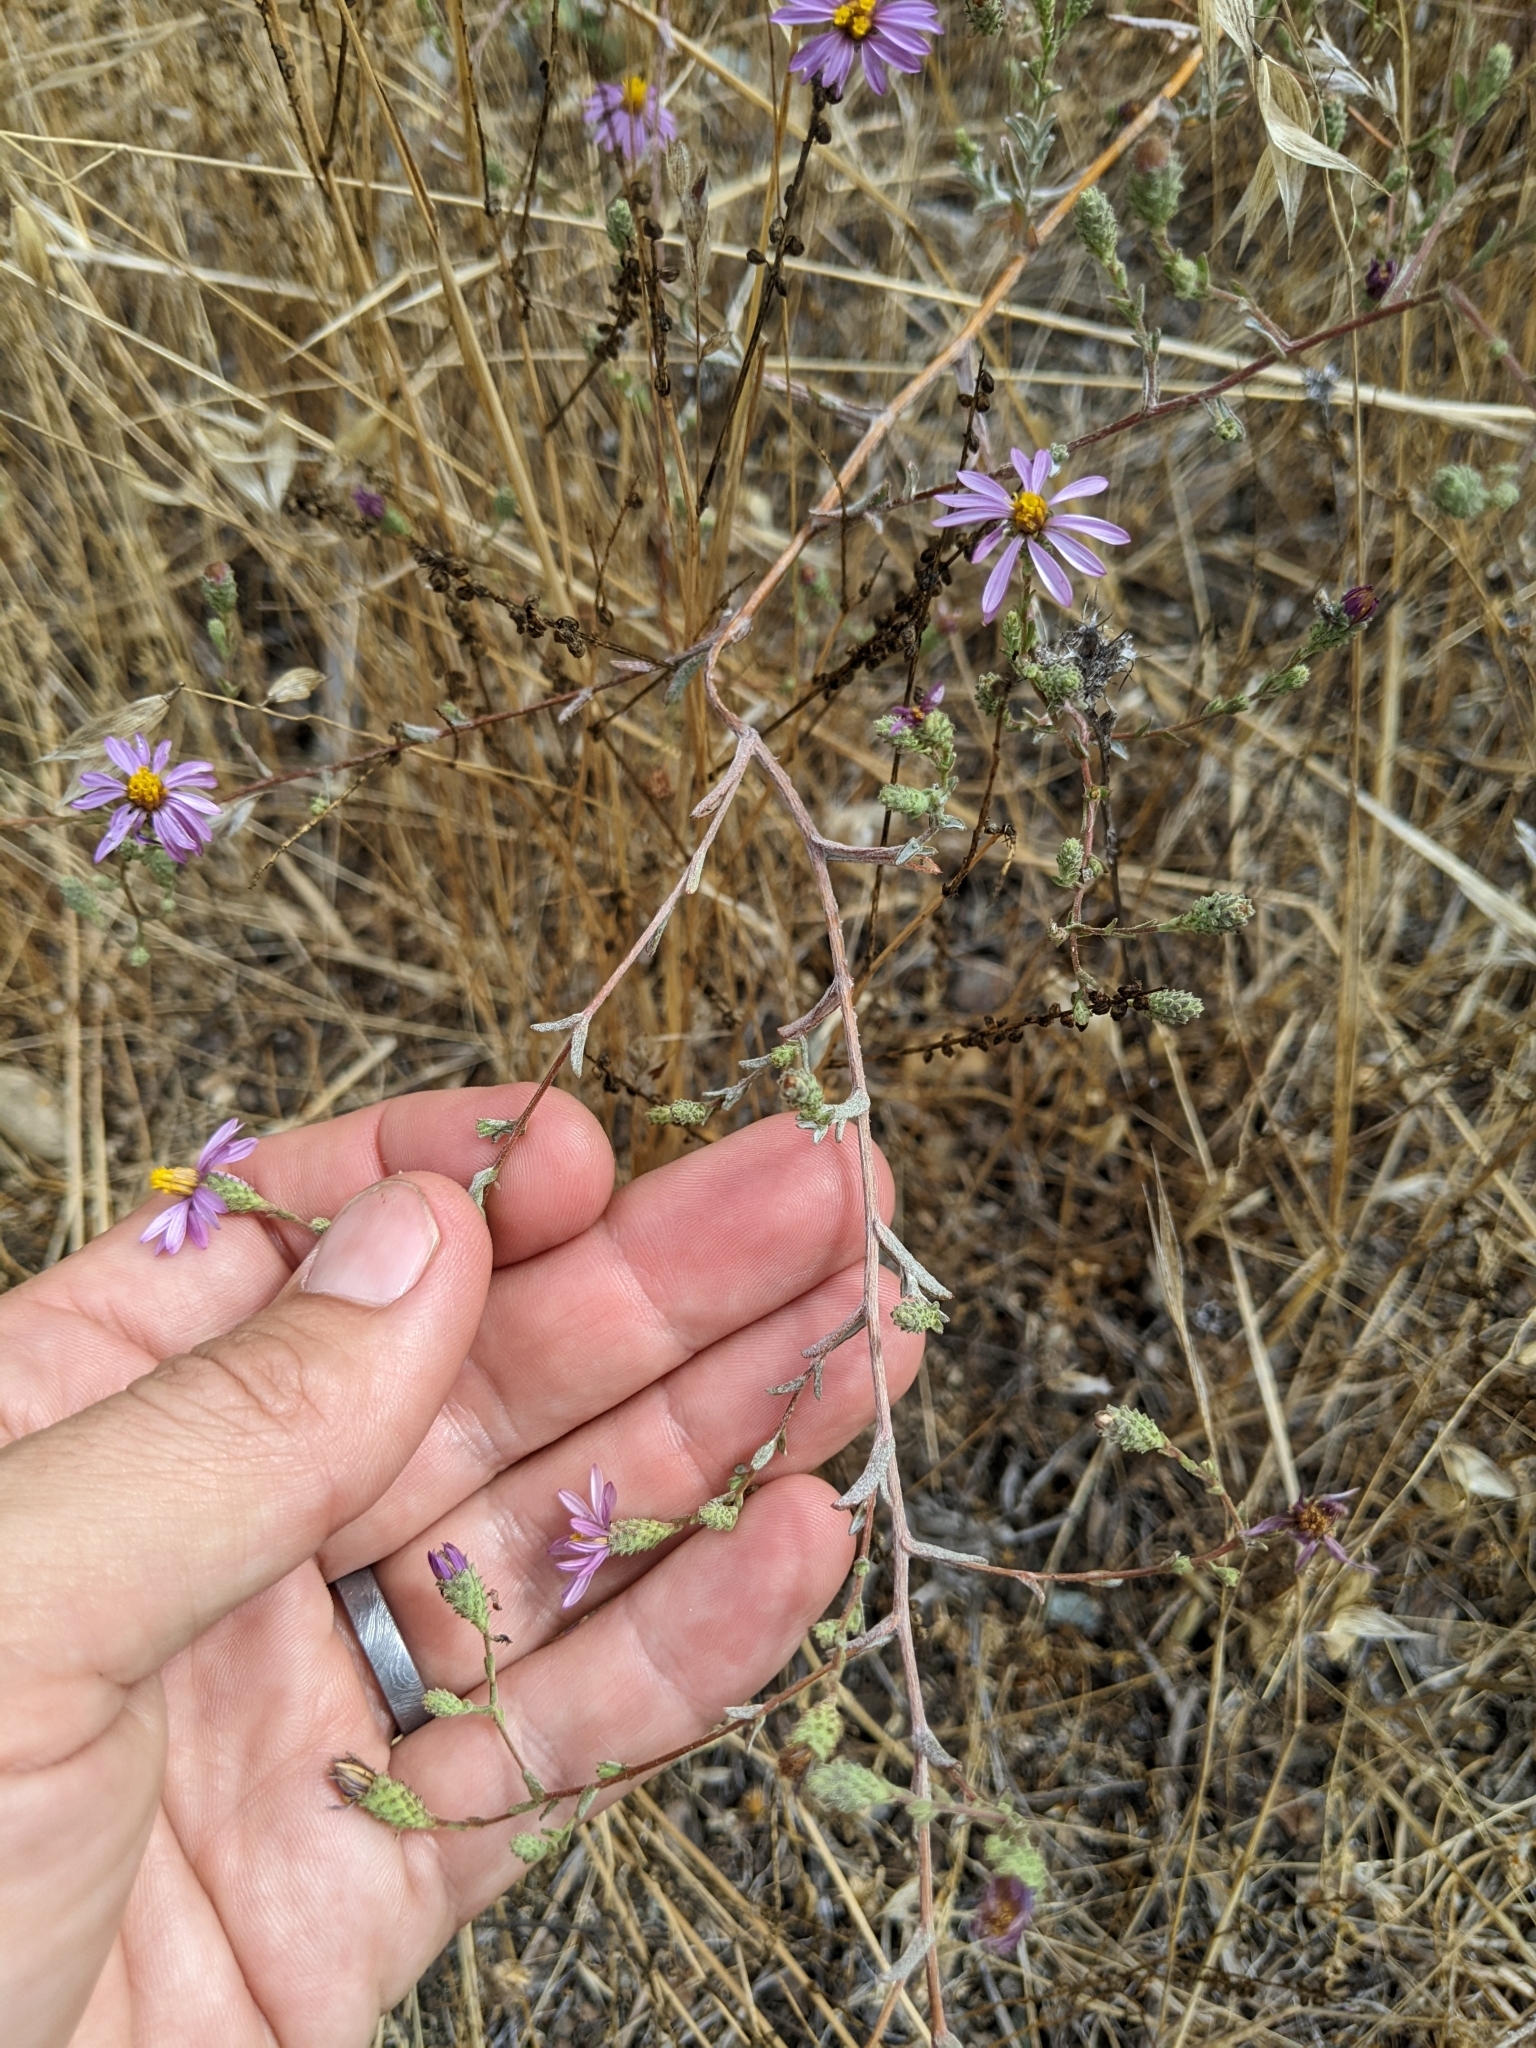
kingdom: Plantae
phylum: Tracheophyta
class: Magnoliopsida
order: Asterales
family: Asteraceae
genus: Corethrogyne
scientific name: Corethrogyne filaginifolia
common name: Sand-aster
